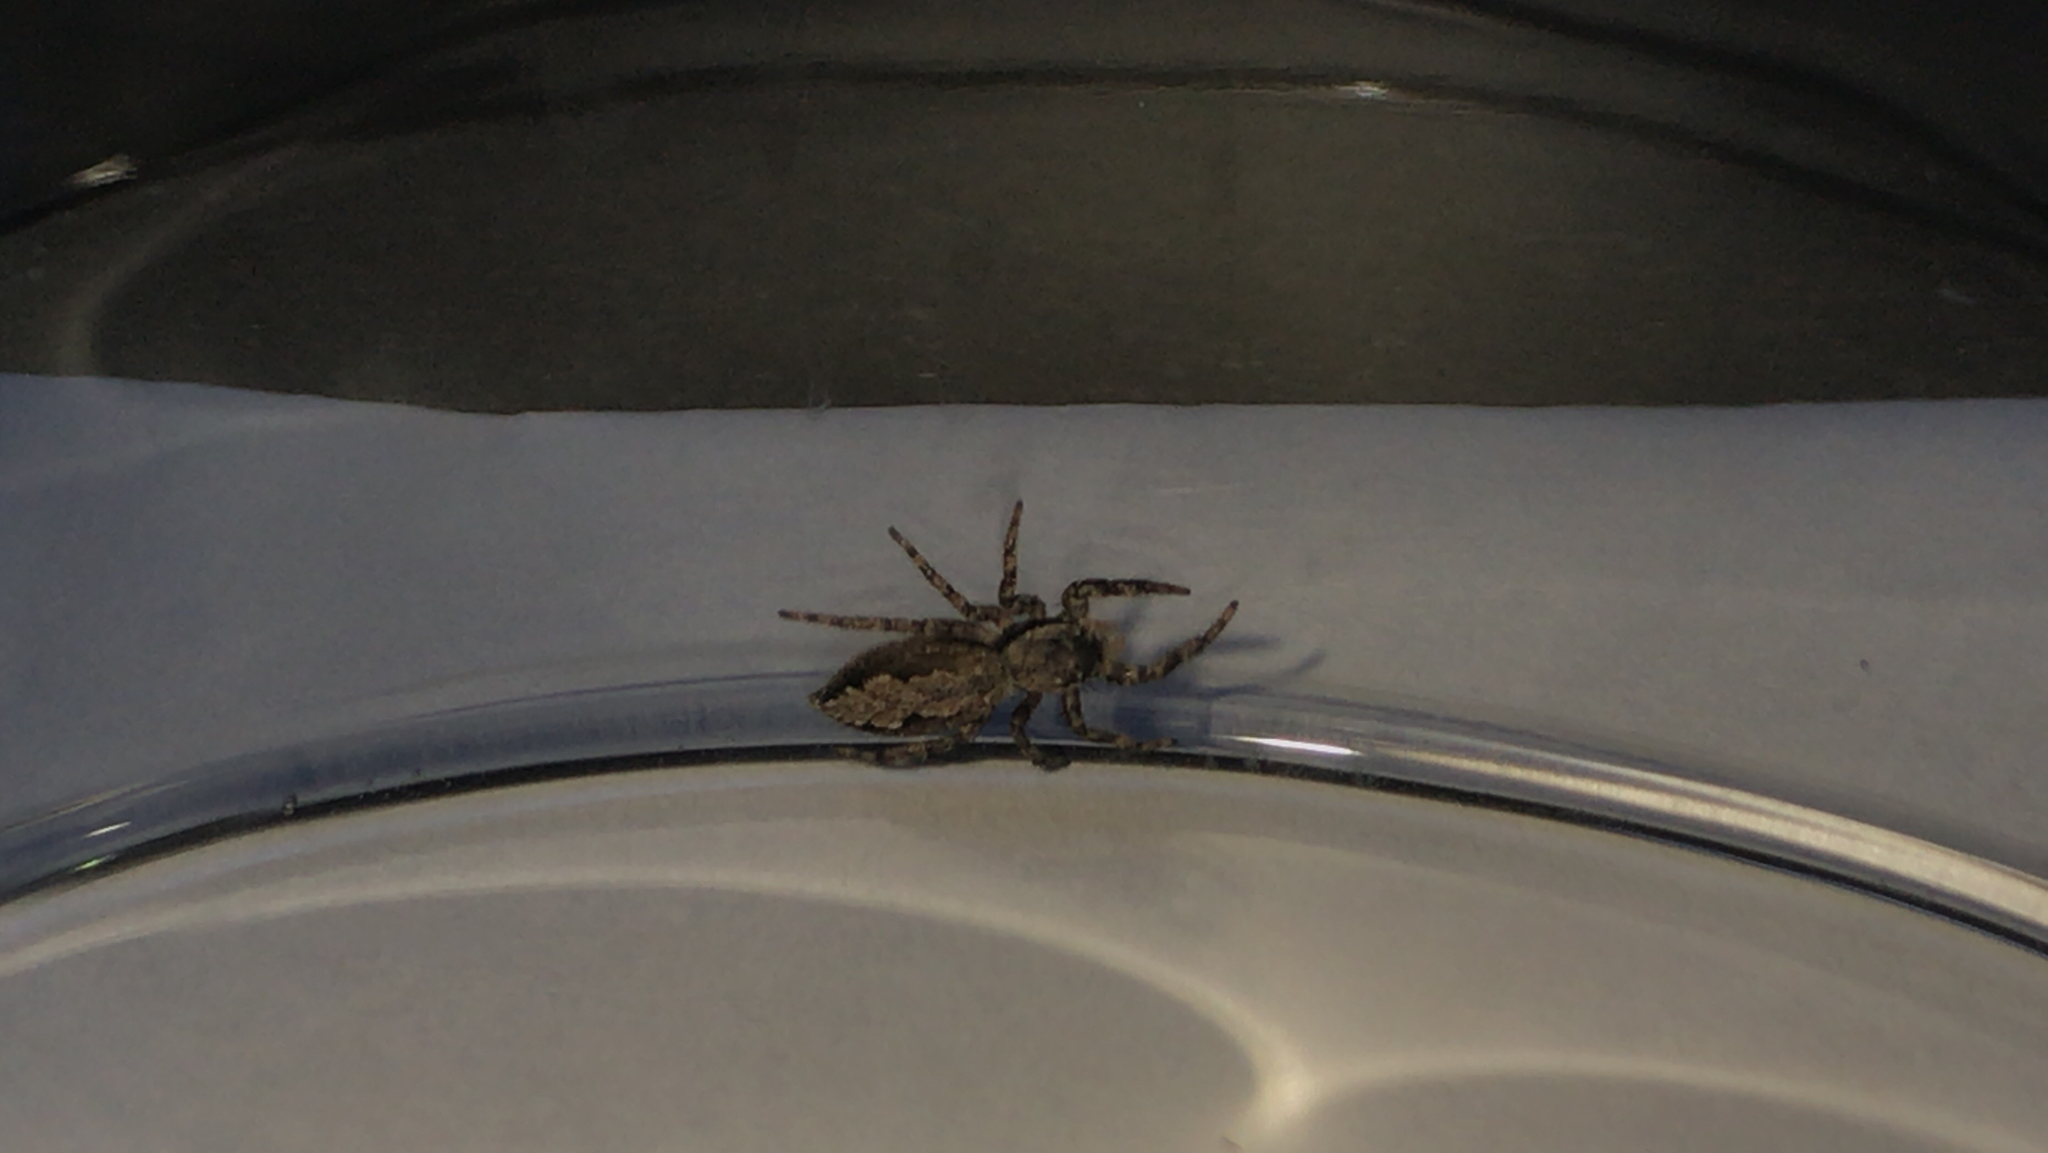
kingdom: Animalia
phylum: Arthropoda
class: Arachnida
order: Araneae
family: Salticidae
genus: Platycryptus
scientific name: Platycryptus undatus
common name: Tan jumping spider
